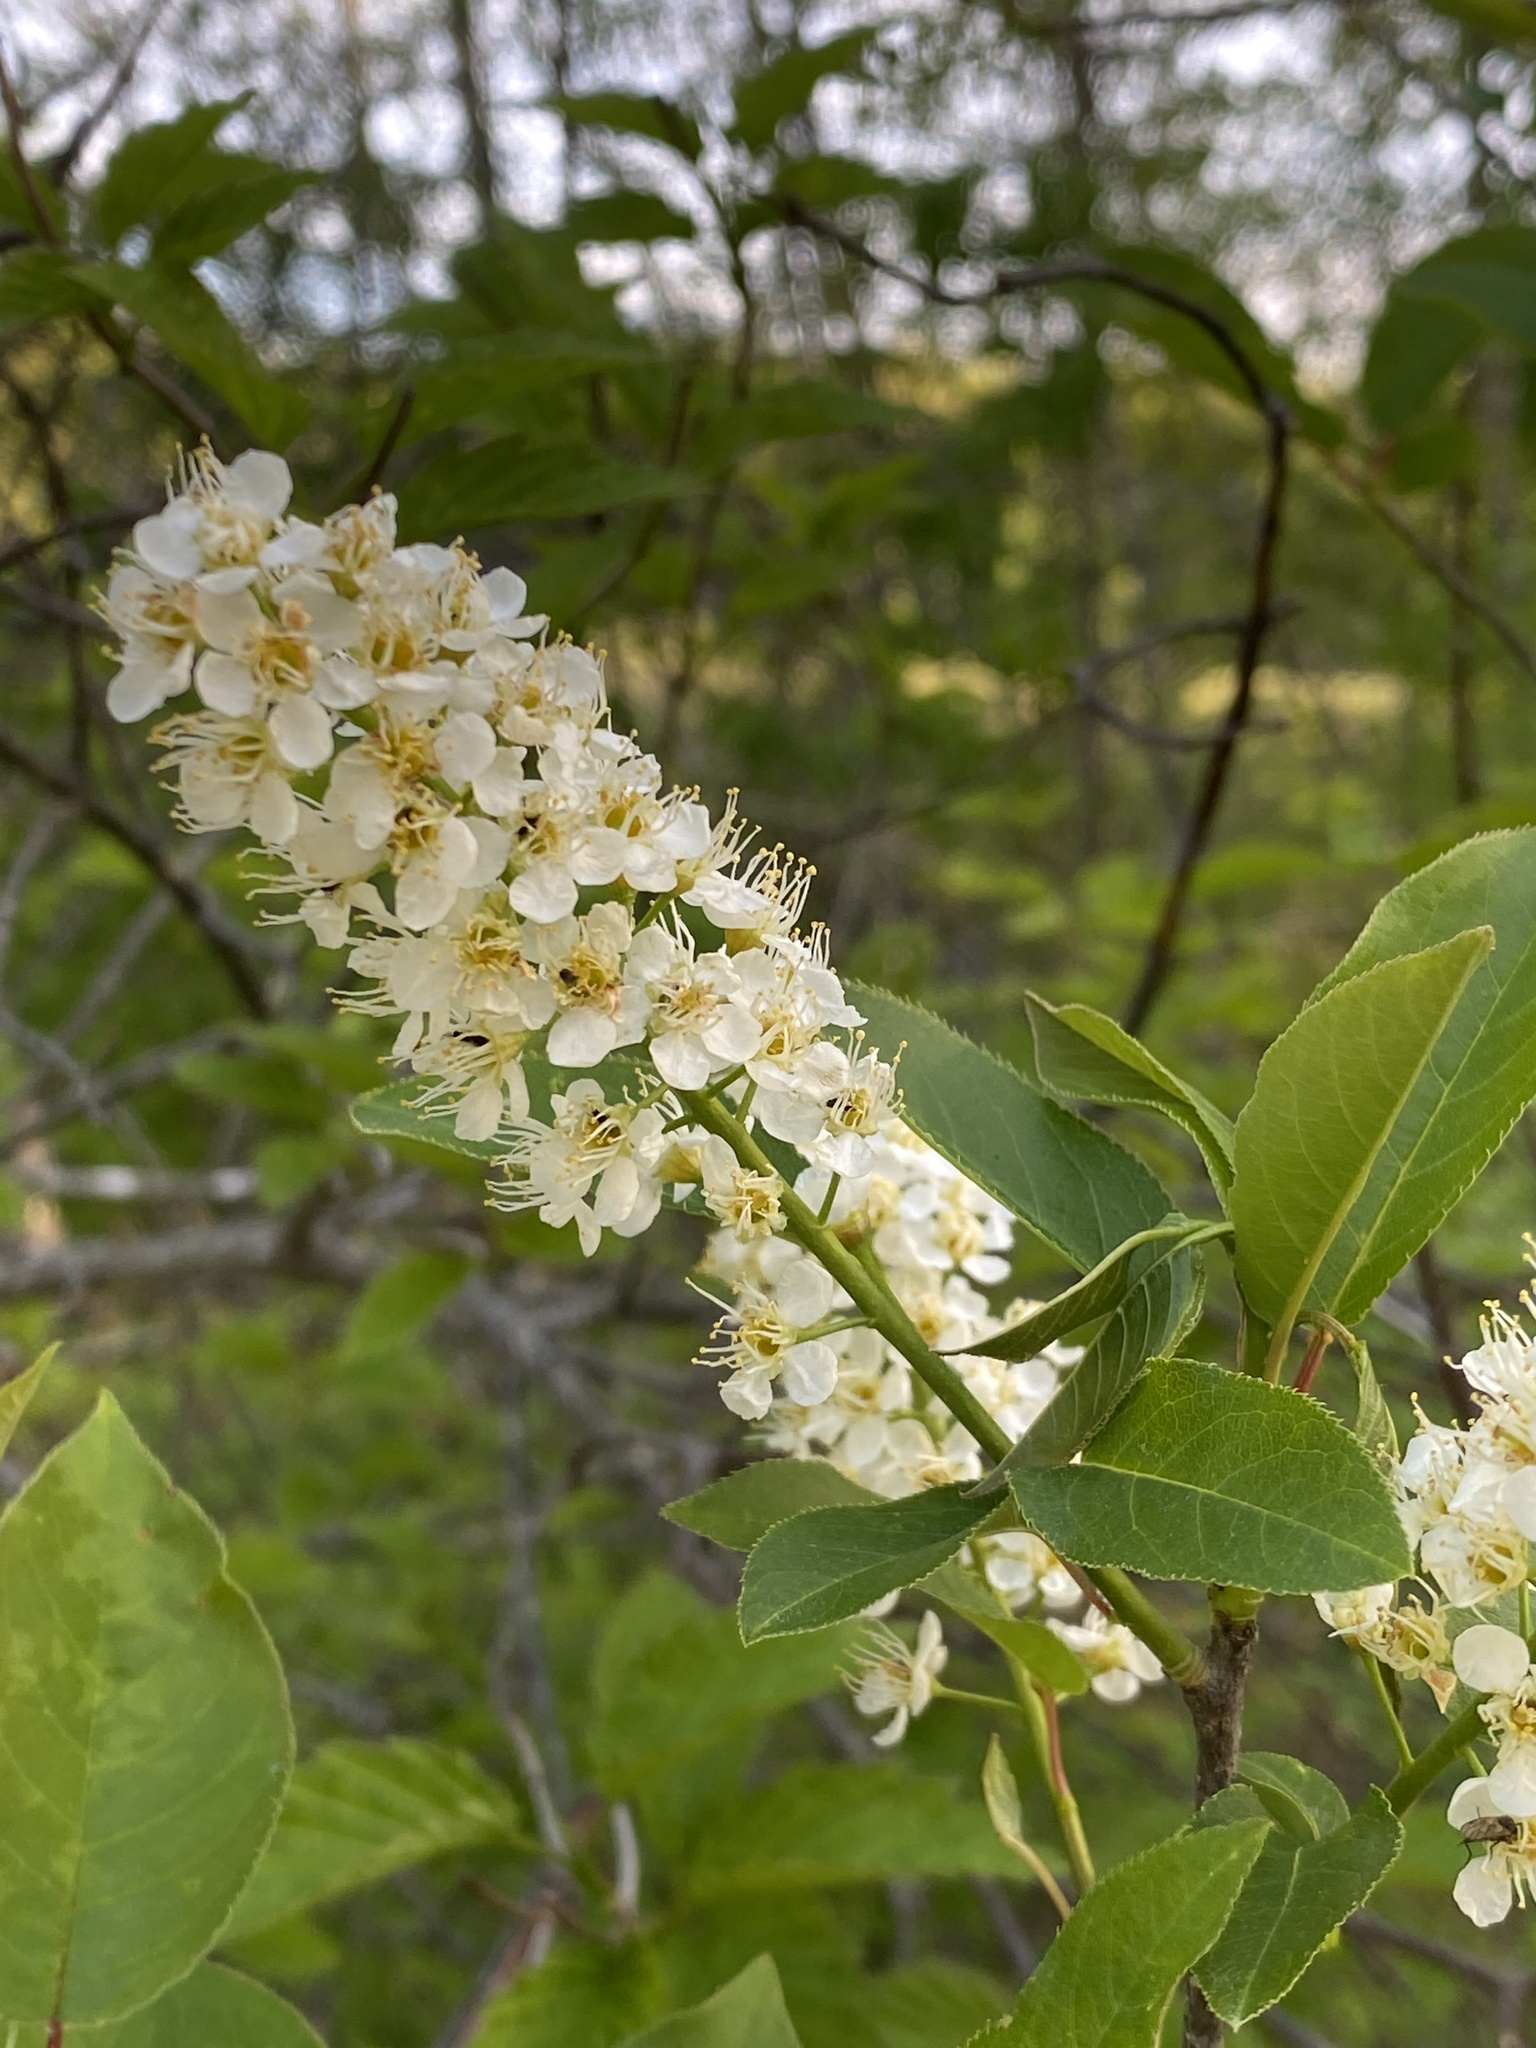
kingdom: Plantae
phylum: Tracheophyta
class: Magnoliopsida
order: Rosales
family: Rosaceae
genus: Prunus
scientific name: Prunus virginiana
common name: Chokecherry
